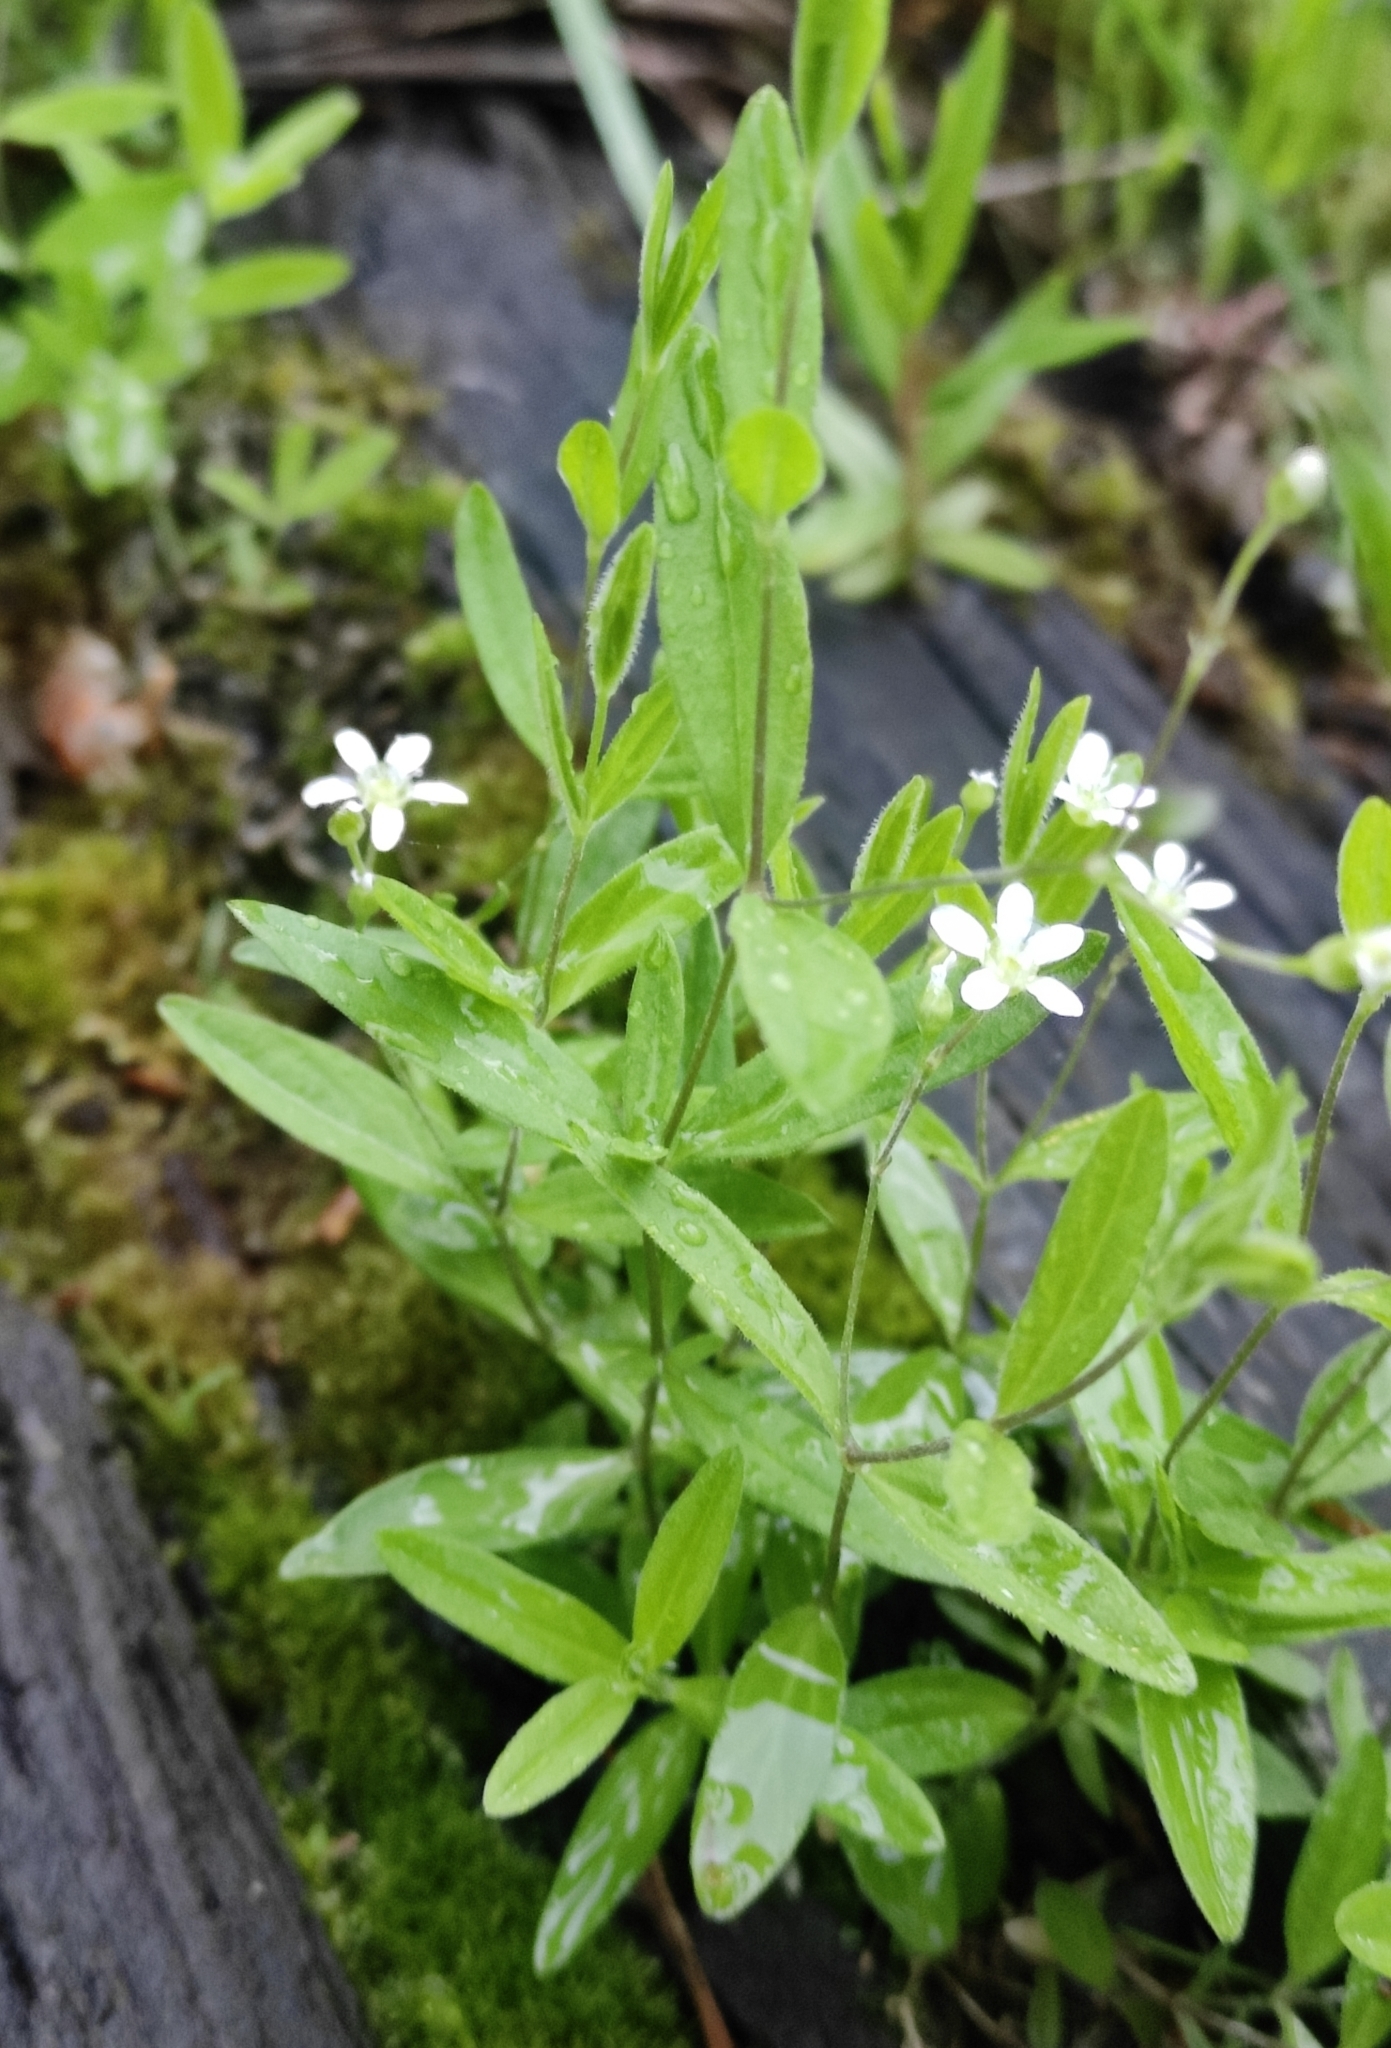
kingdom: Plantae
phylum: Tracheophyta
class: Magnoliopsida
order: Caryophyllales
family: Caryophyllaceae
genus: Moehringia
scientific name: Moehringia lateriflora
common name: Blunt-leaved sandwort
